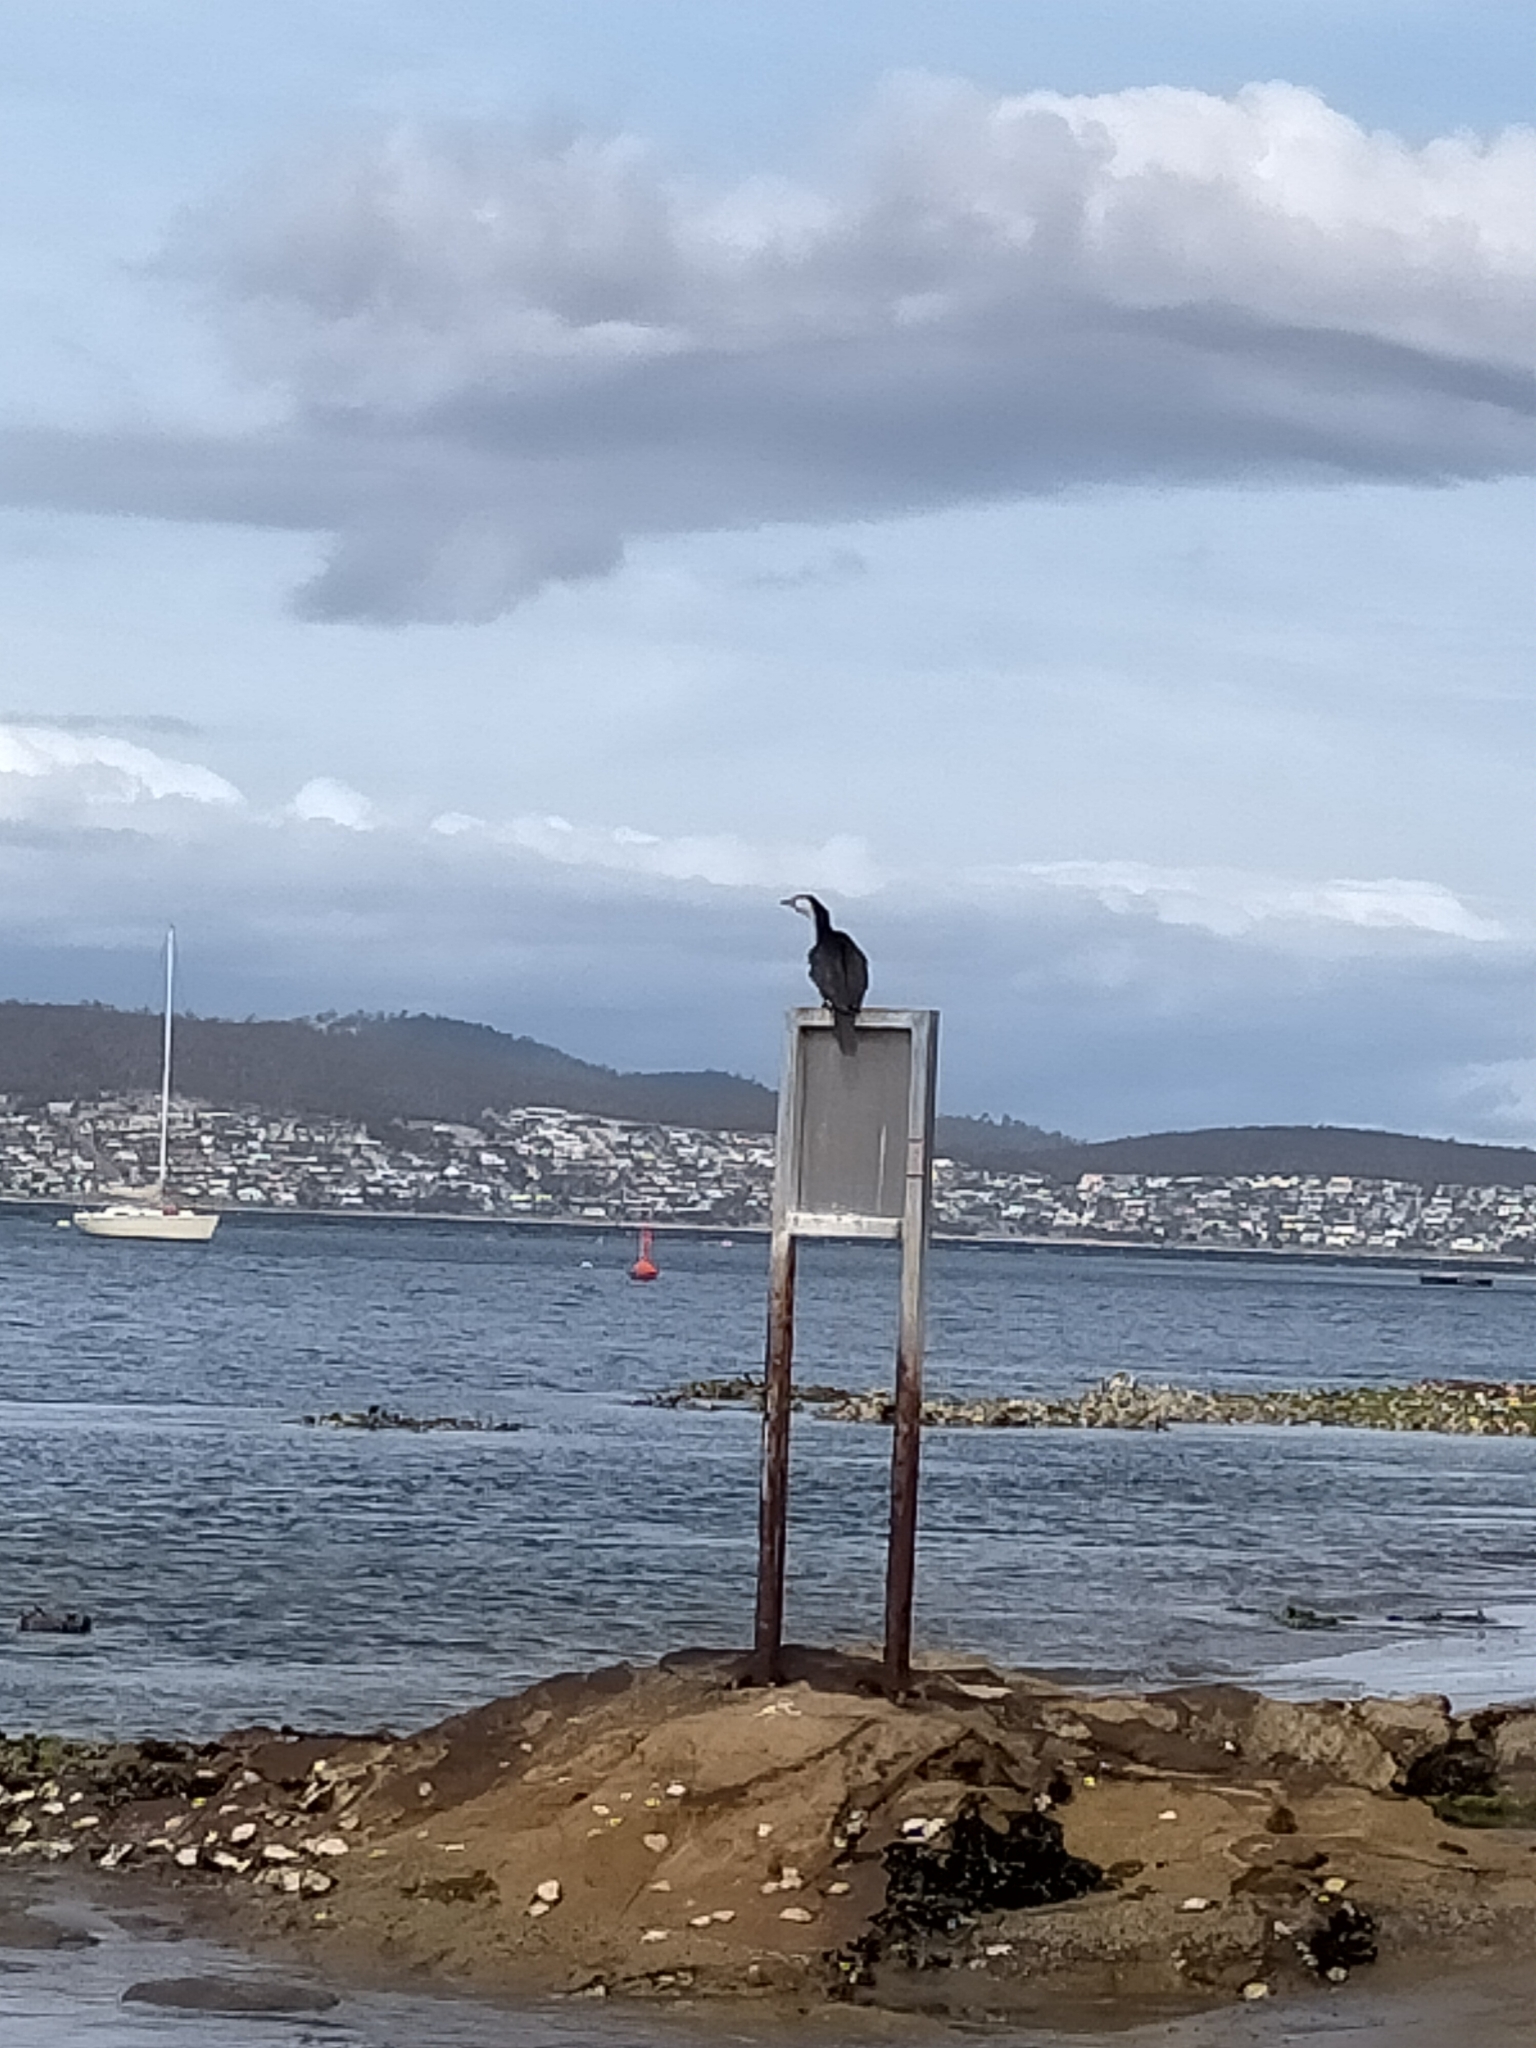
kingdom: Animalia
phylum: Chordata
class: Aves
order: Suliformes
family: Phalacrocoracidae
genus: Phalacrocorax
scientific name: Phalacrocorax fuscescens
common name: Black-faced cormorant
